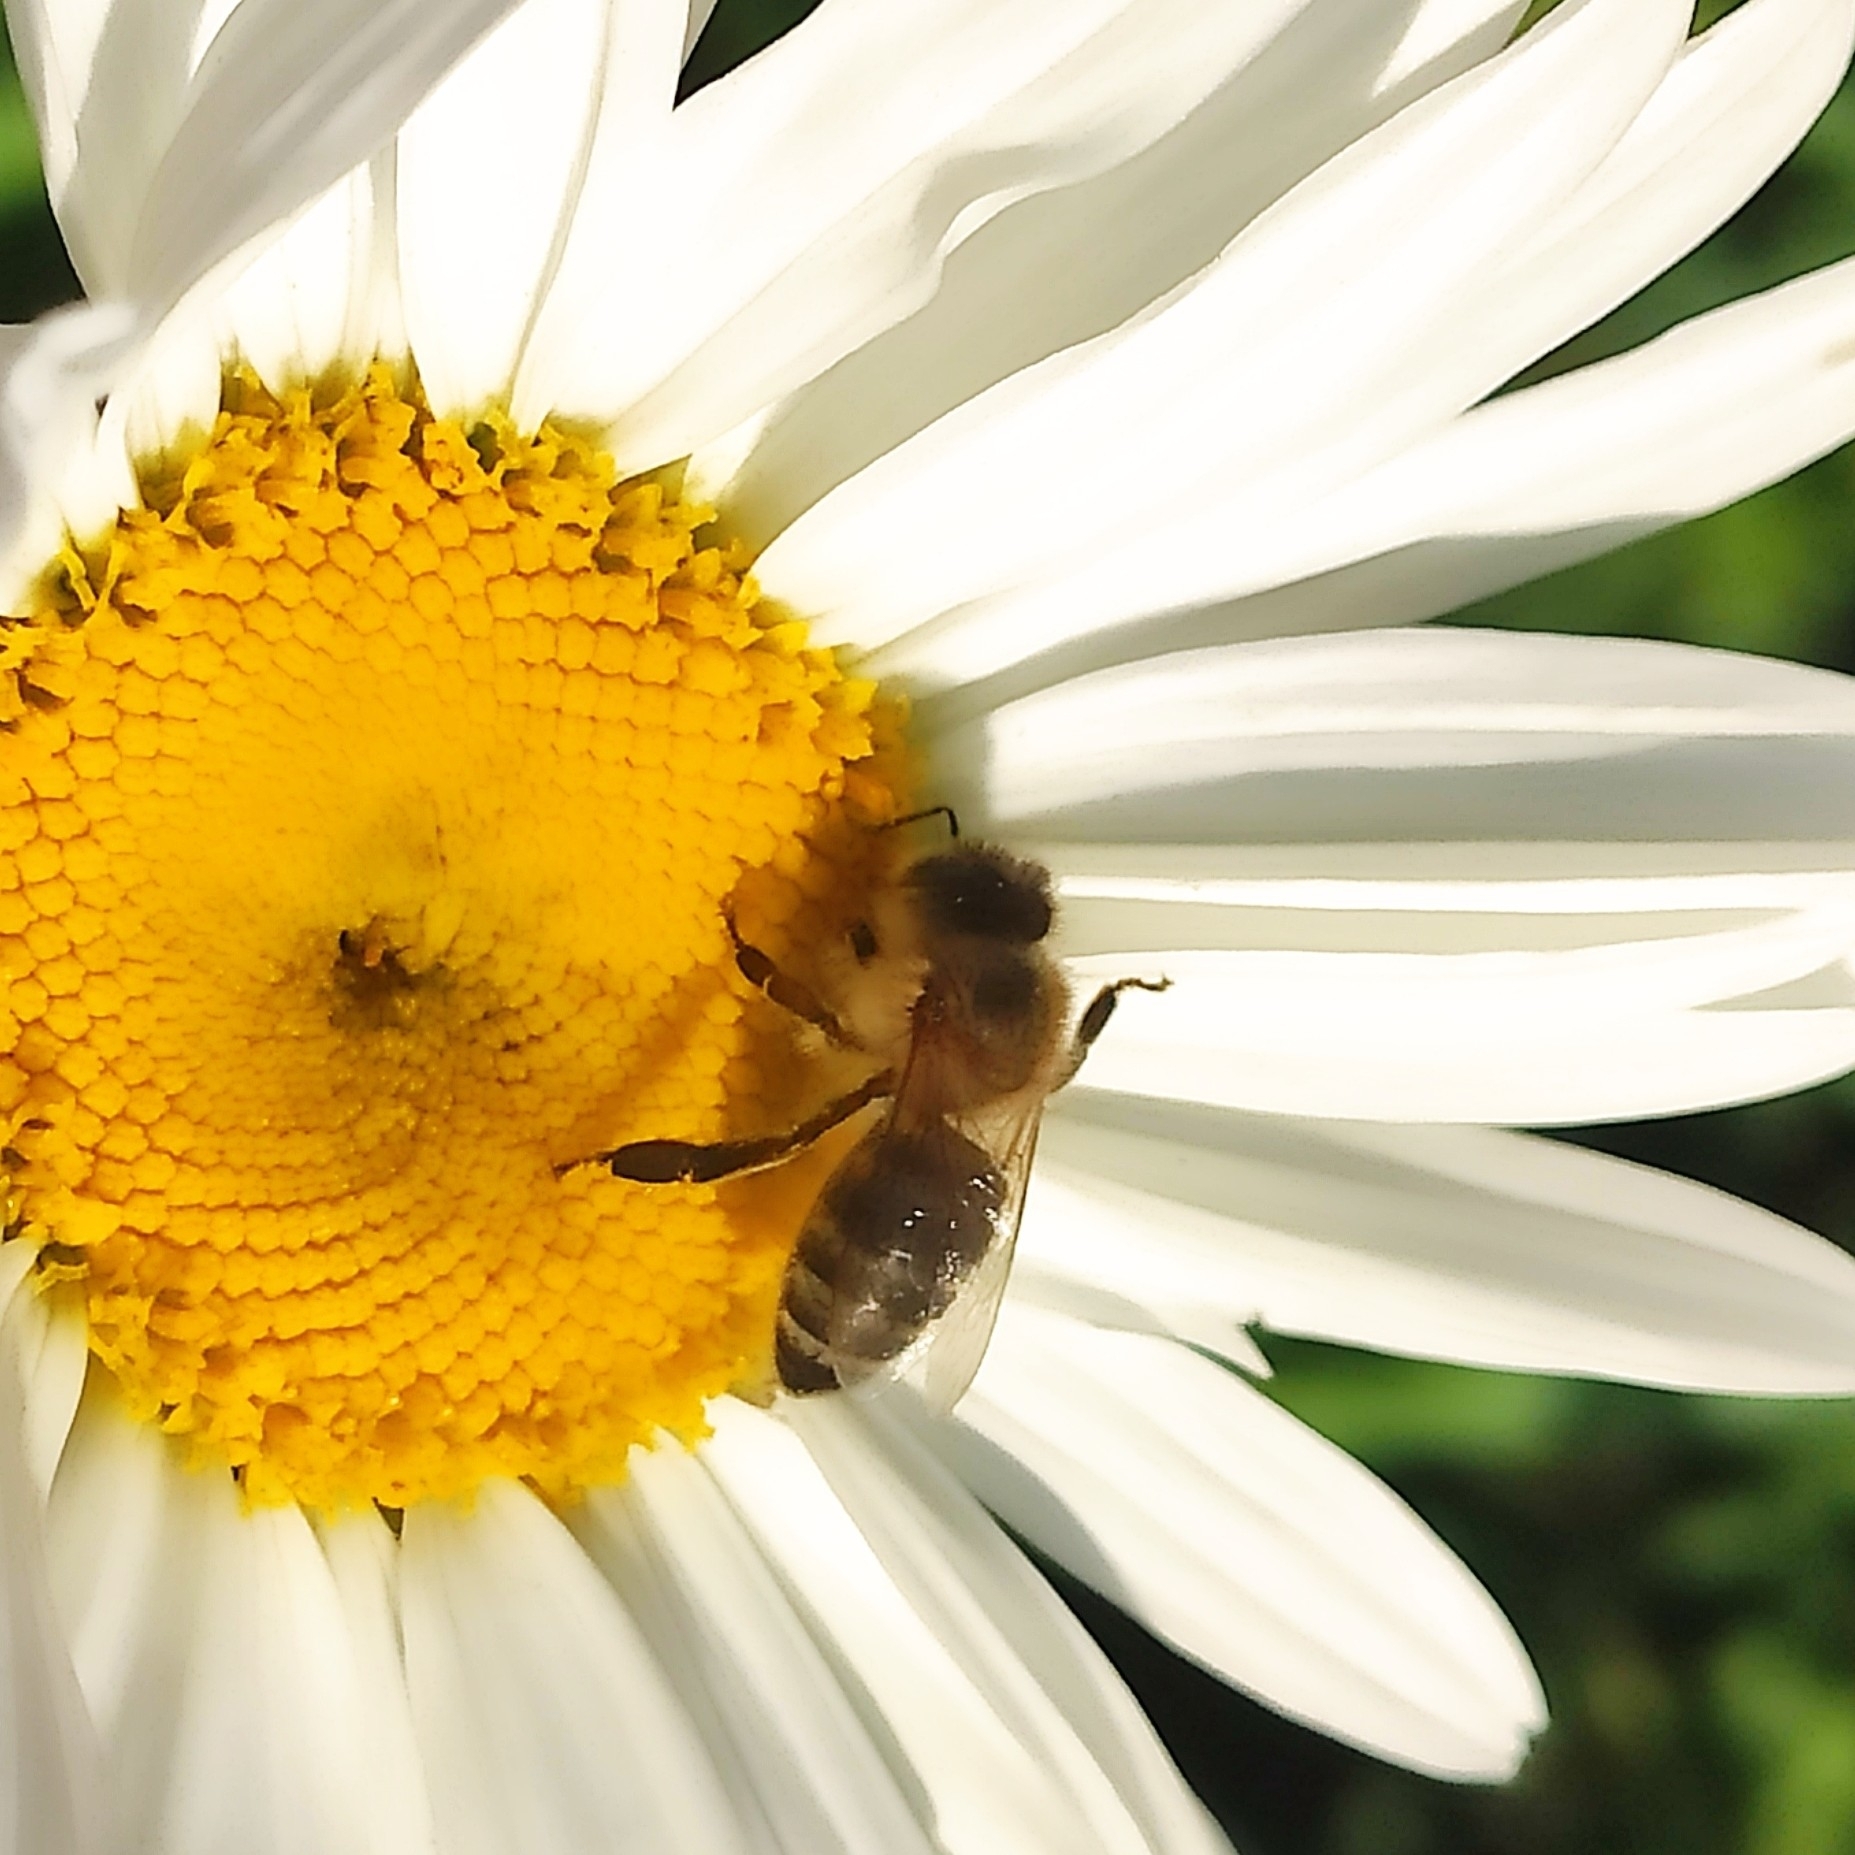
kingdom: Animalia
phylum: Arthropoda
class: Insecta
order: Hymenoptera
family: Apidae
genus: Apis
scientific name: Apis mellifera
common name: Honey bee
